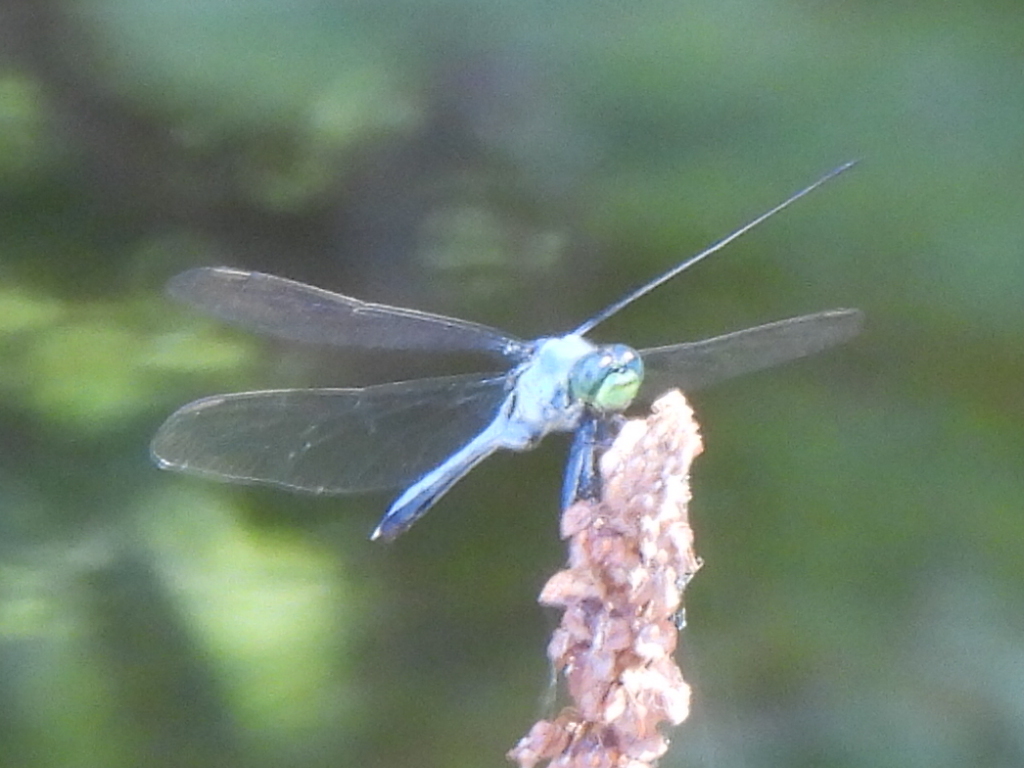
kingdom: Animalia
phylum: Arthropoda
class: Insecta
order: Odonata
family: Libellulidae
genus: Erythemis
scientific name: Erythemis simplicicollis
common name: Eastern pondhawk
